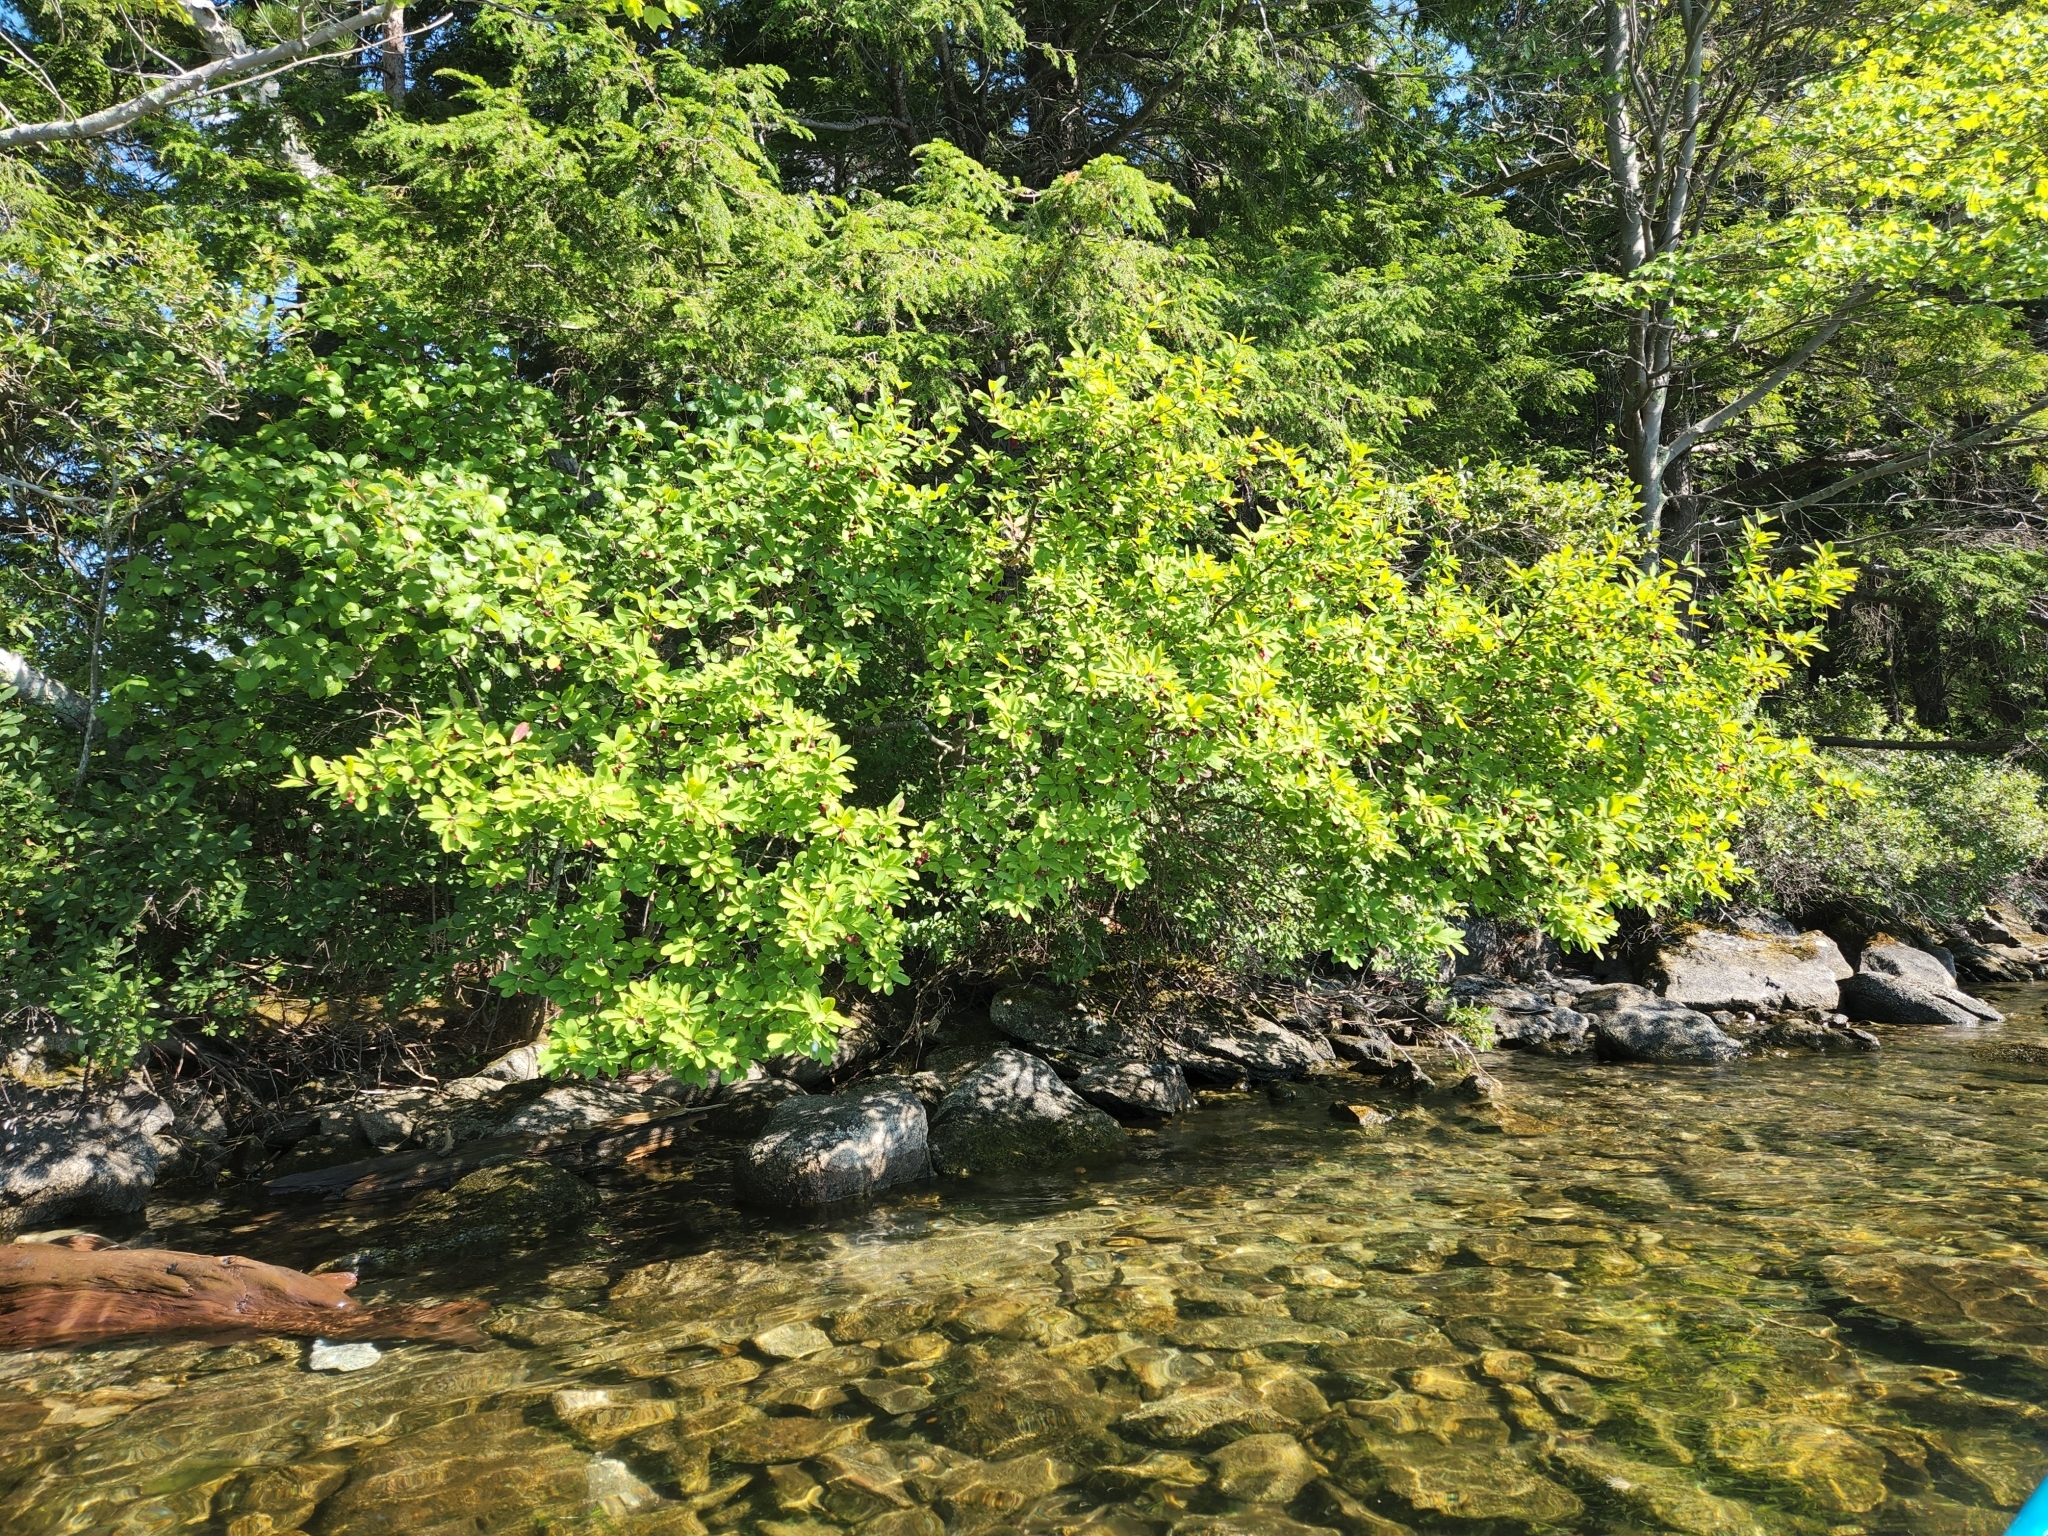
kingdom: Plantae
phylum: Tracheophyta
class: Magnoliopsida
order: Aquifoliales
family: Aquifoliaceae
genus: Ilex
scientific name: Ilex mucronata
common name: Catberry
